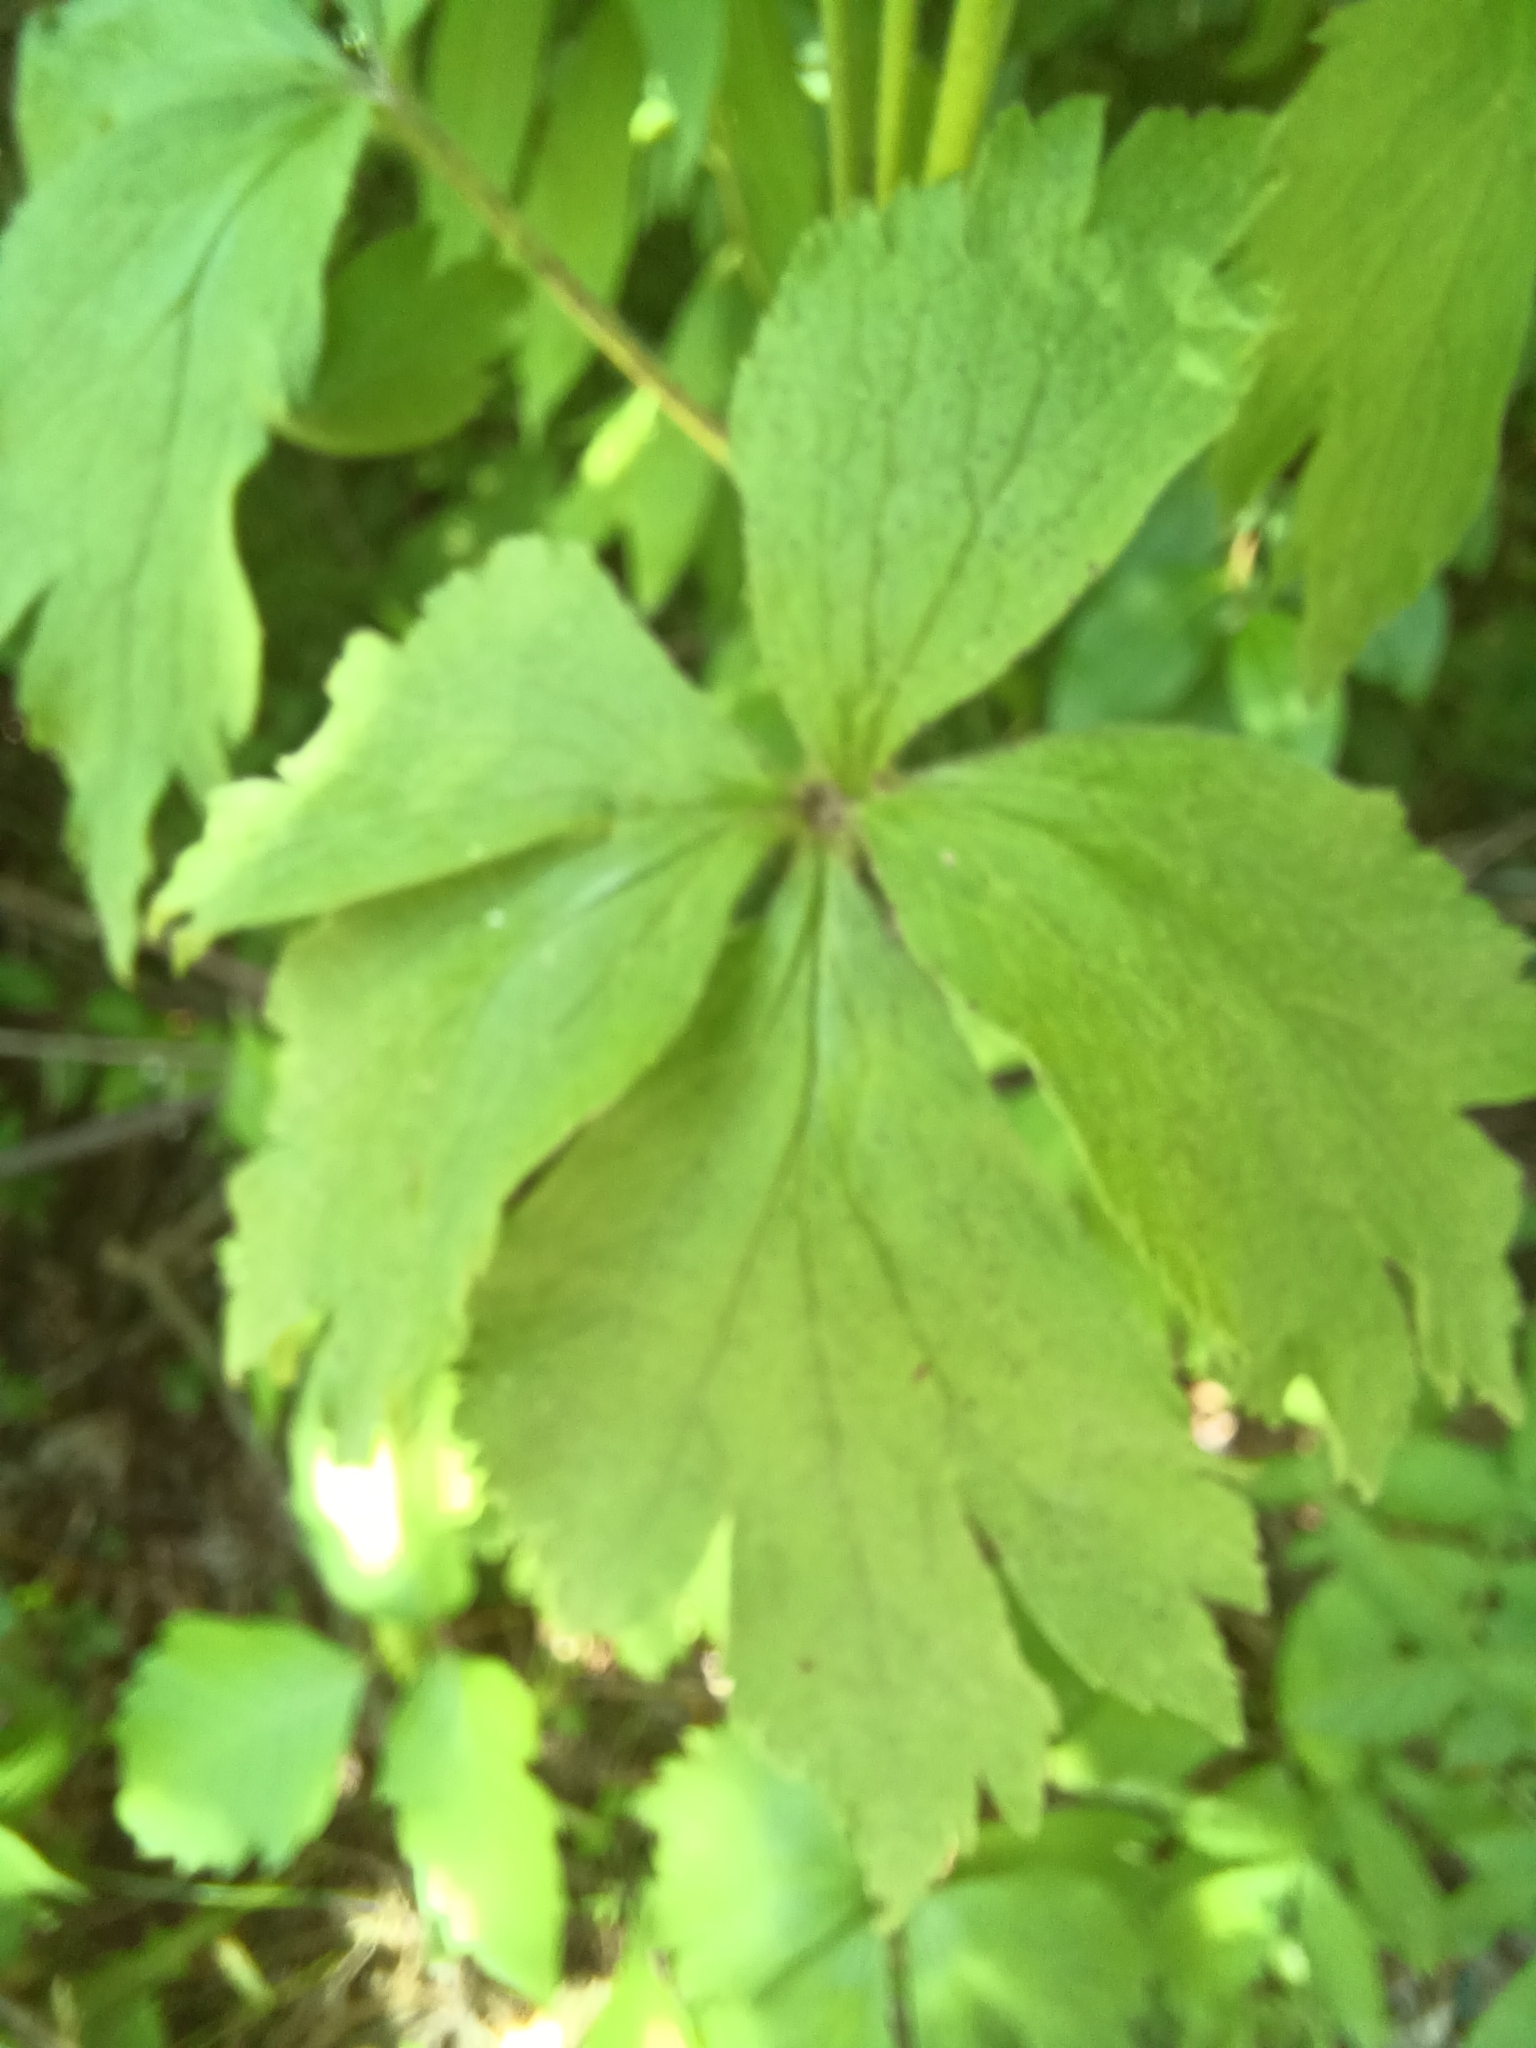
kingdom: Plantae
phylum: Tracheophyta
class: Magnoliopsida
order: Ranunculales
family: Ranunculaceae
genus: Anemone
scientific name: Anemone virginiana
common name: Tall anemone
